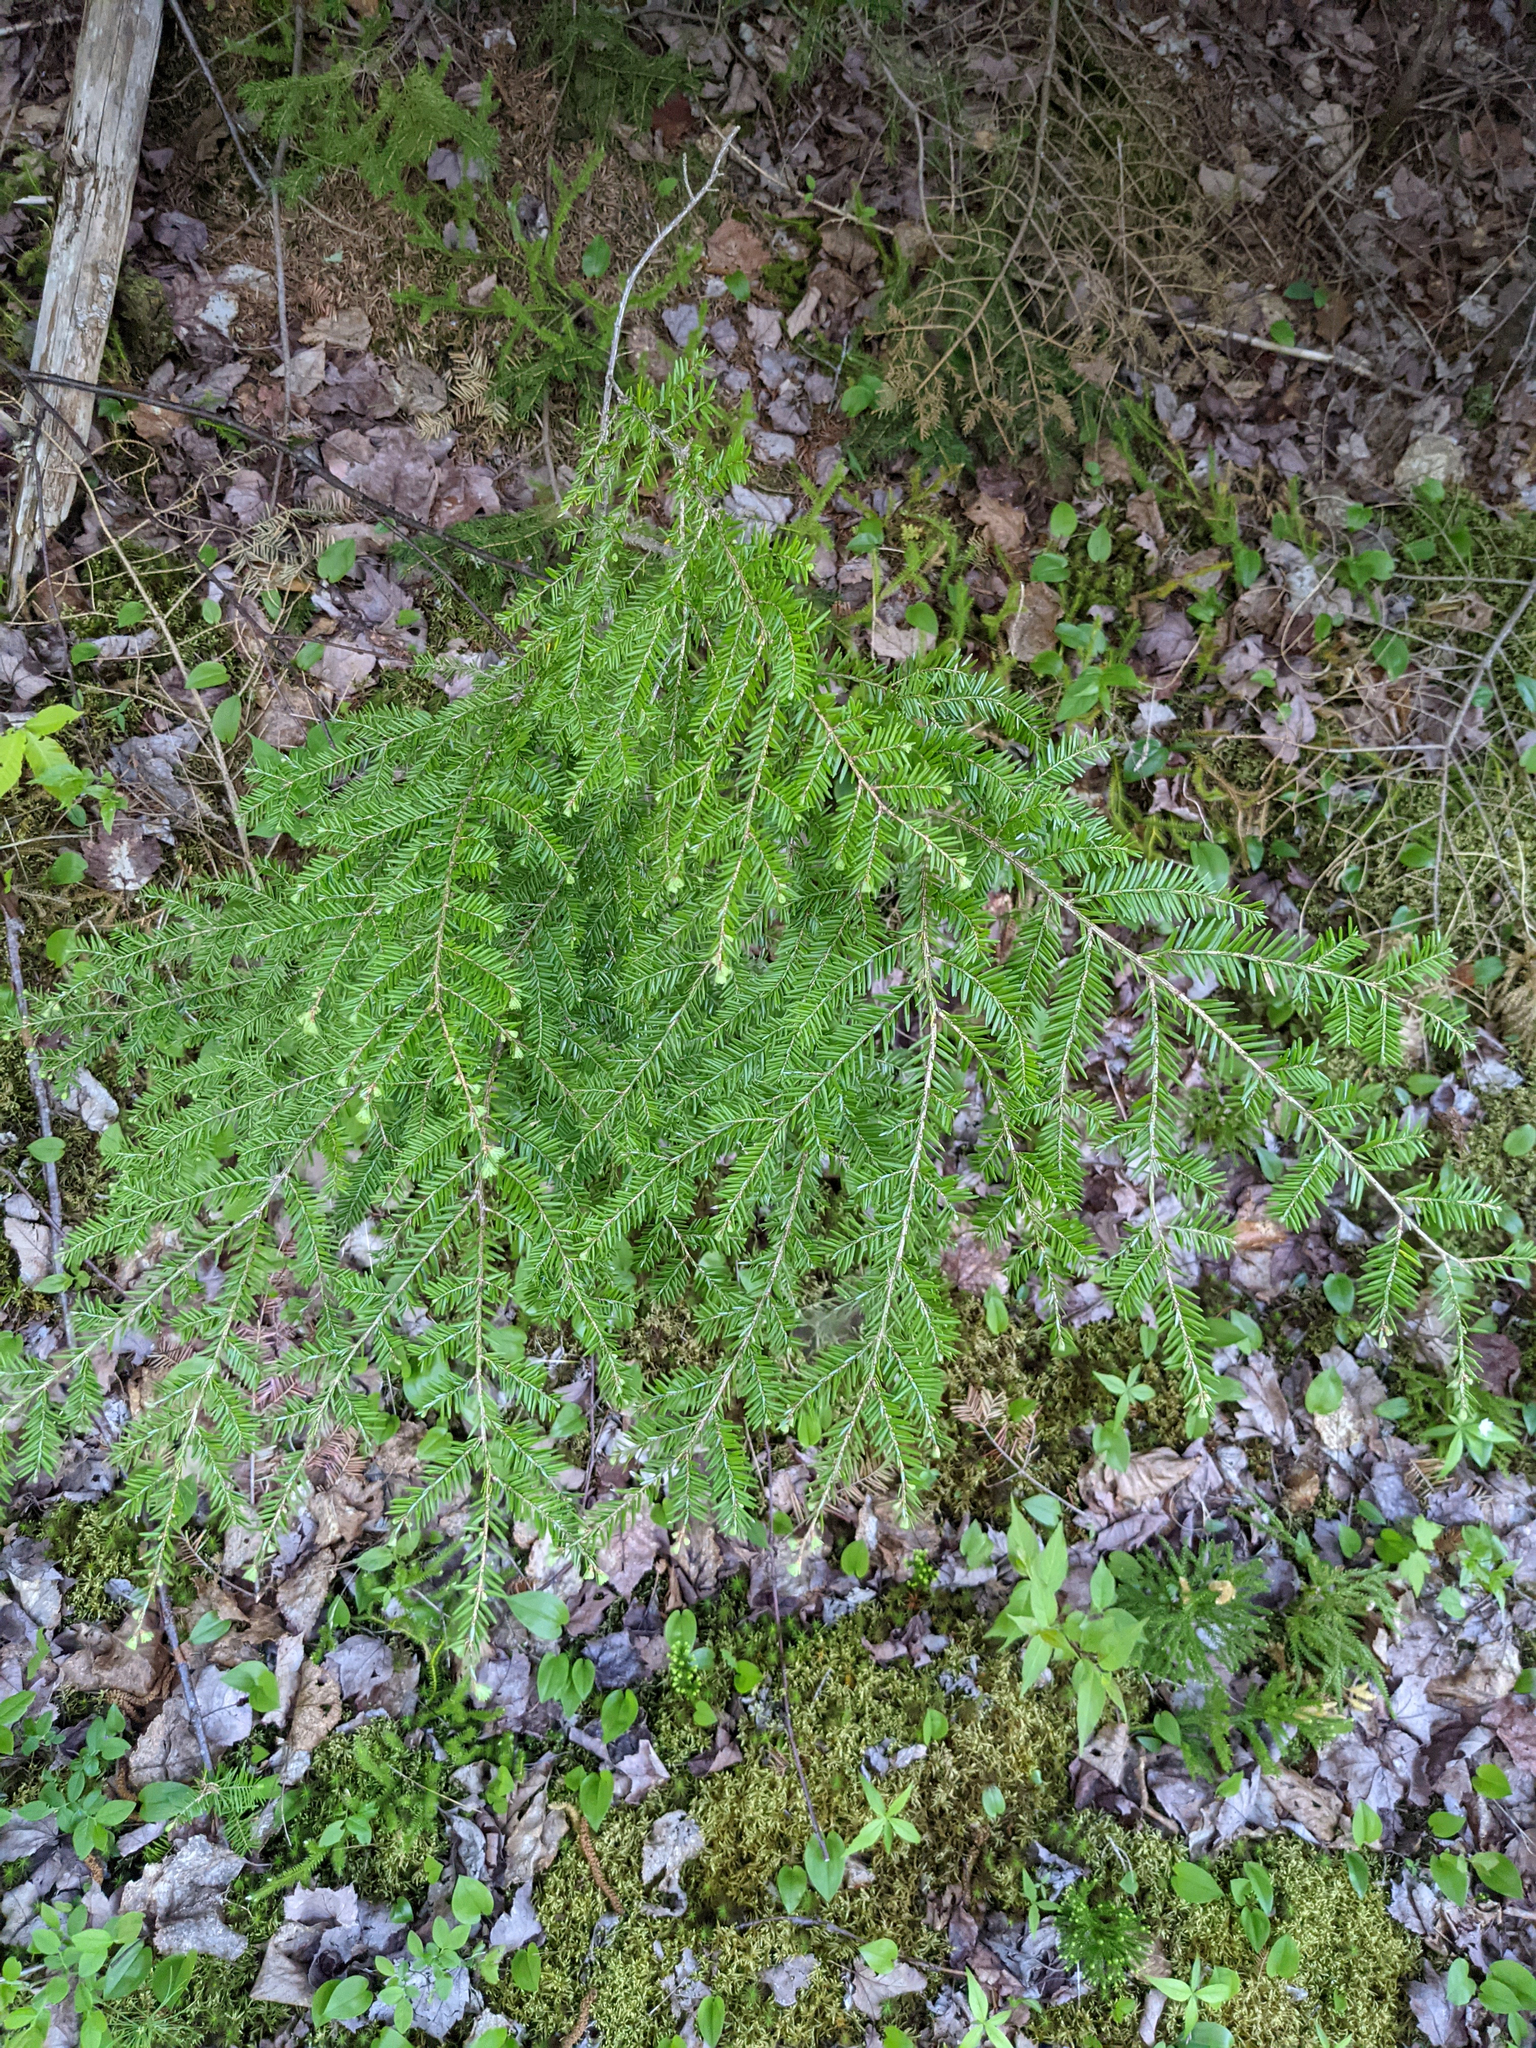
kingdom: Plantae
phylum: Tracheophyta
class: Pinopsida
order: Pinales
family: Pinaceae
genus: Tsuga
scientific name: Tsuga canadensis
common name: Eastern hemlock
